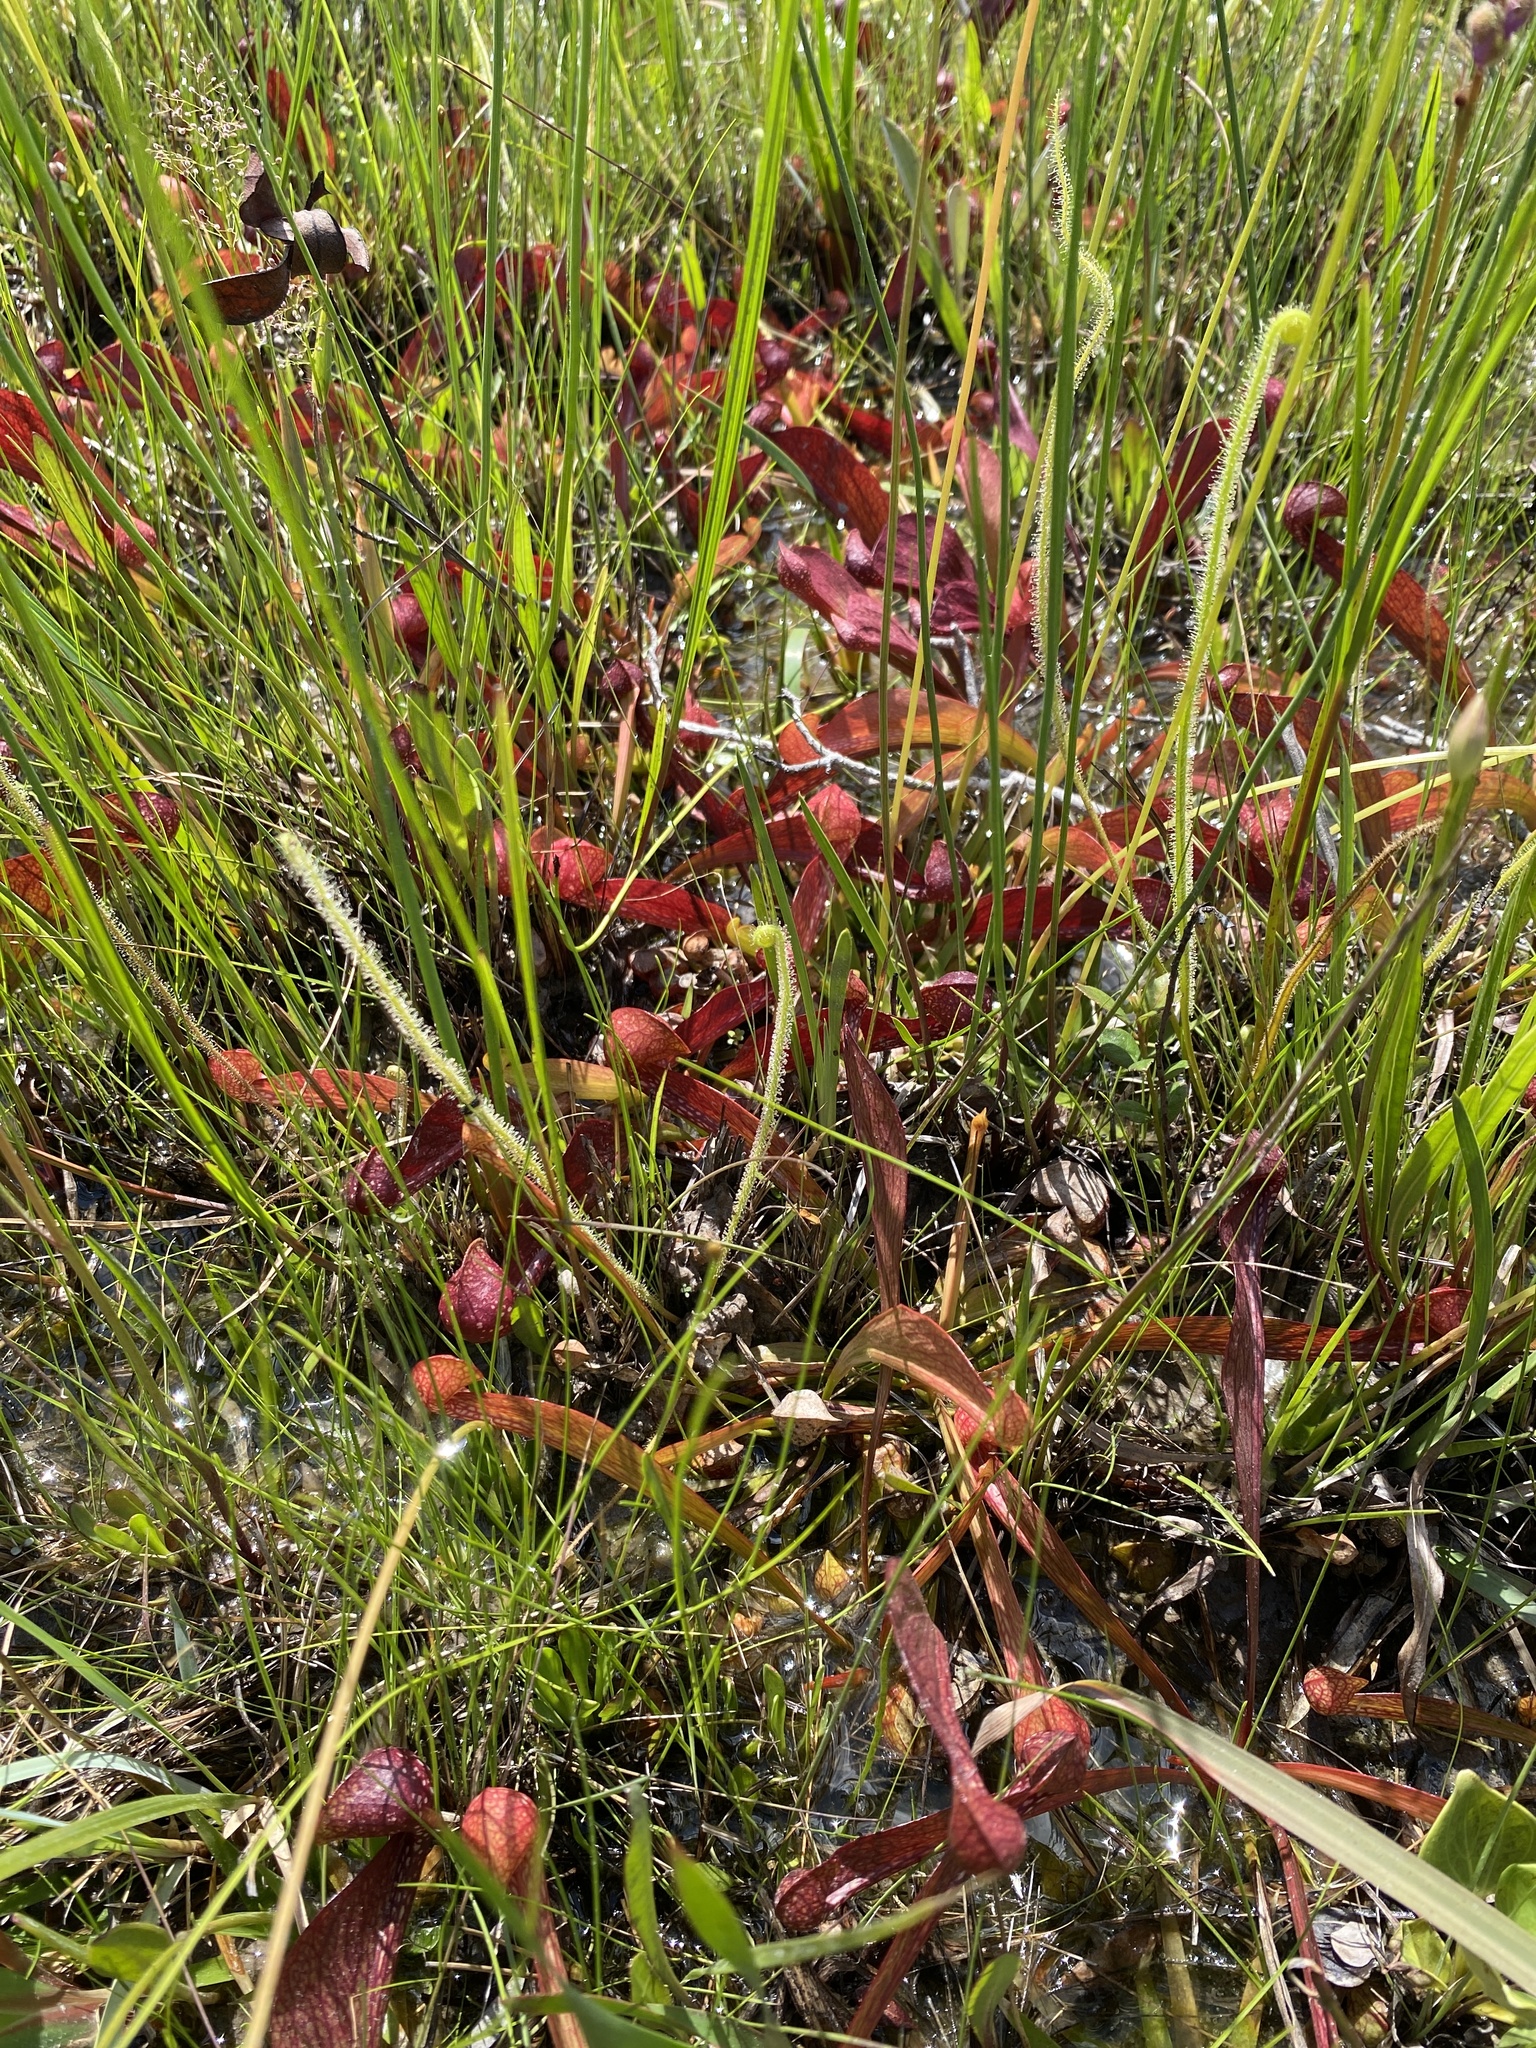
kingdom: Plantae
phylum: Tracheophyta
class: Magnoliopsida
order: Ericales
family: Sarraceniaceae
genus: Sarracenia
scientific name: Sarracenia psittacina
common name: Parrot pitcherplant
